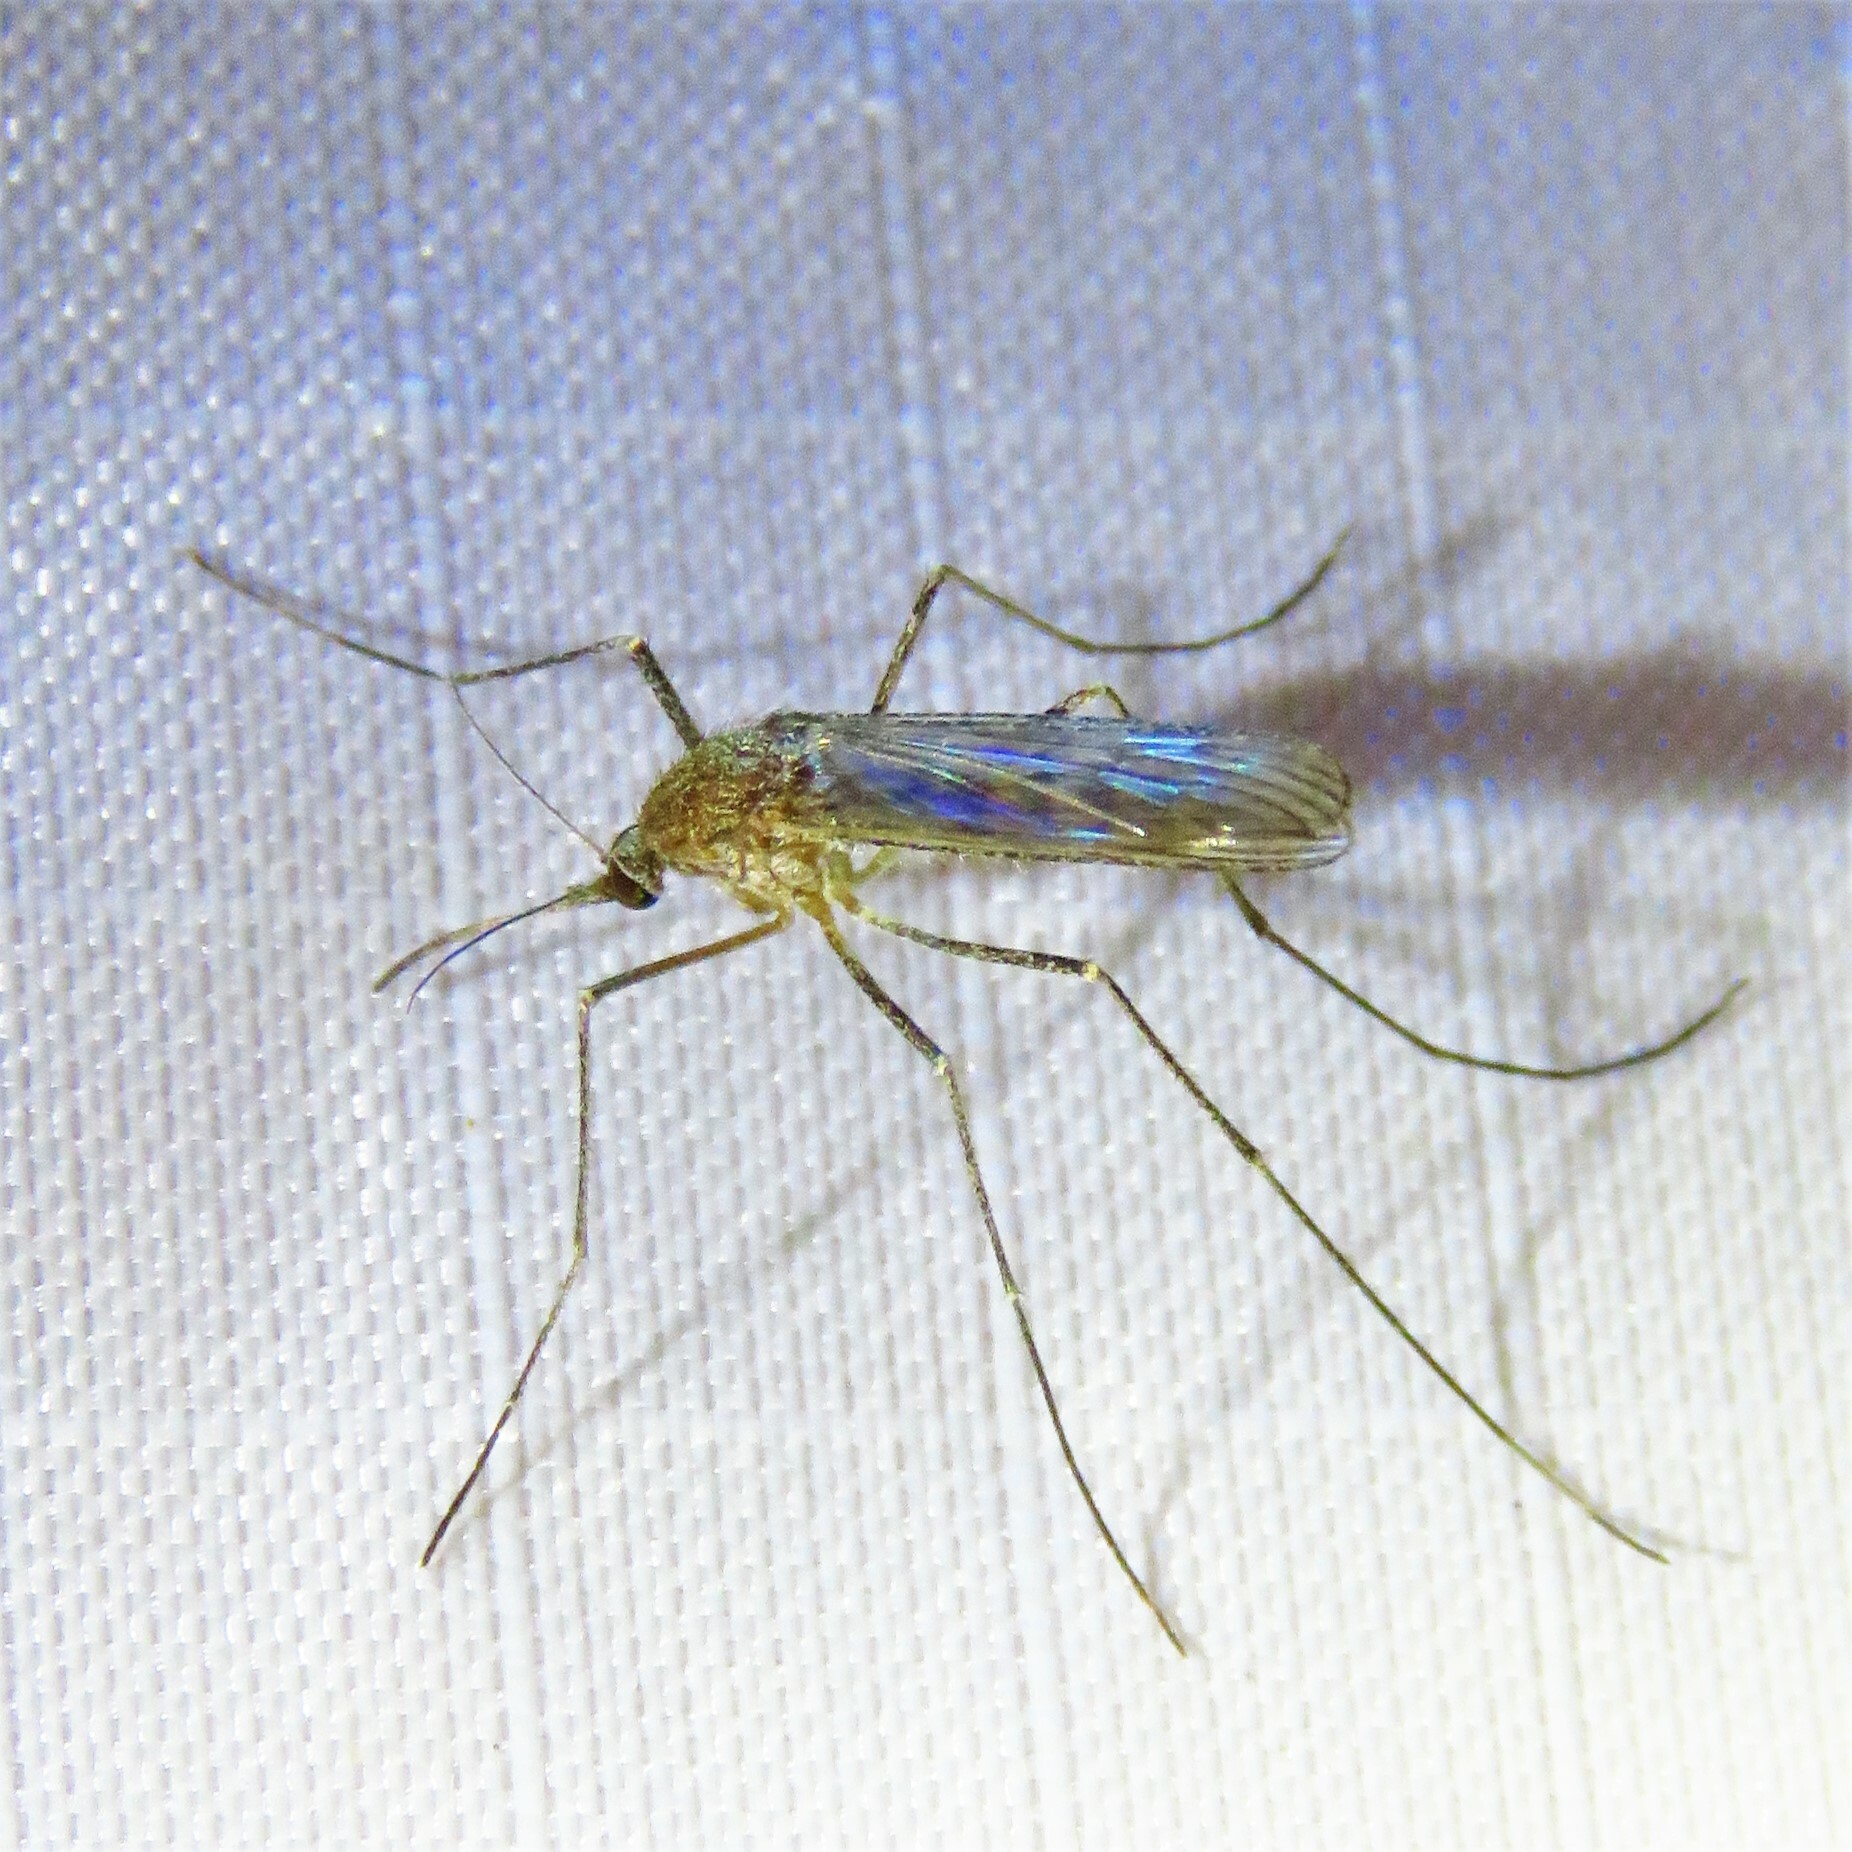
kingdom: Animalia
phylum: Arthropoda
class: Insecta
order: Diptera
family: Culicidae
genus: Culiseta
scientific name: Culiseta inornata
